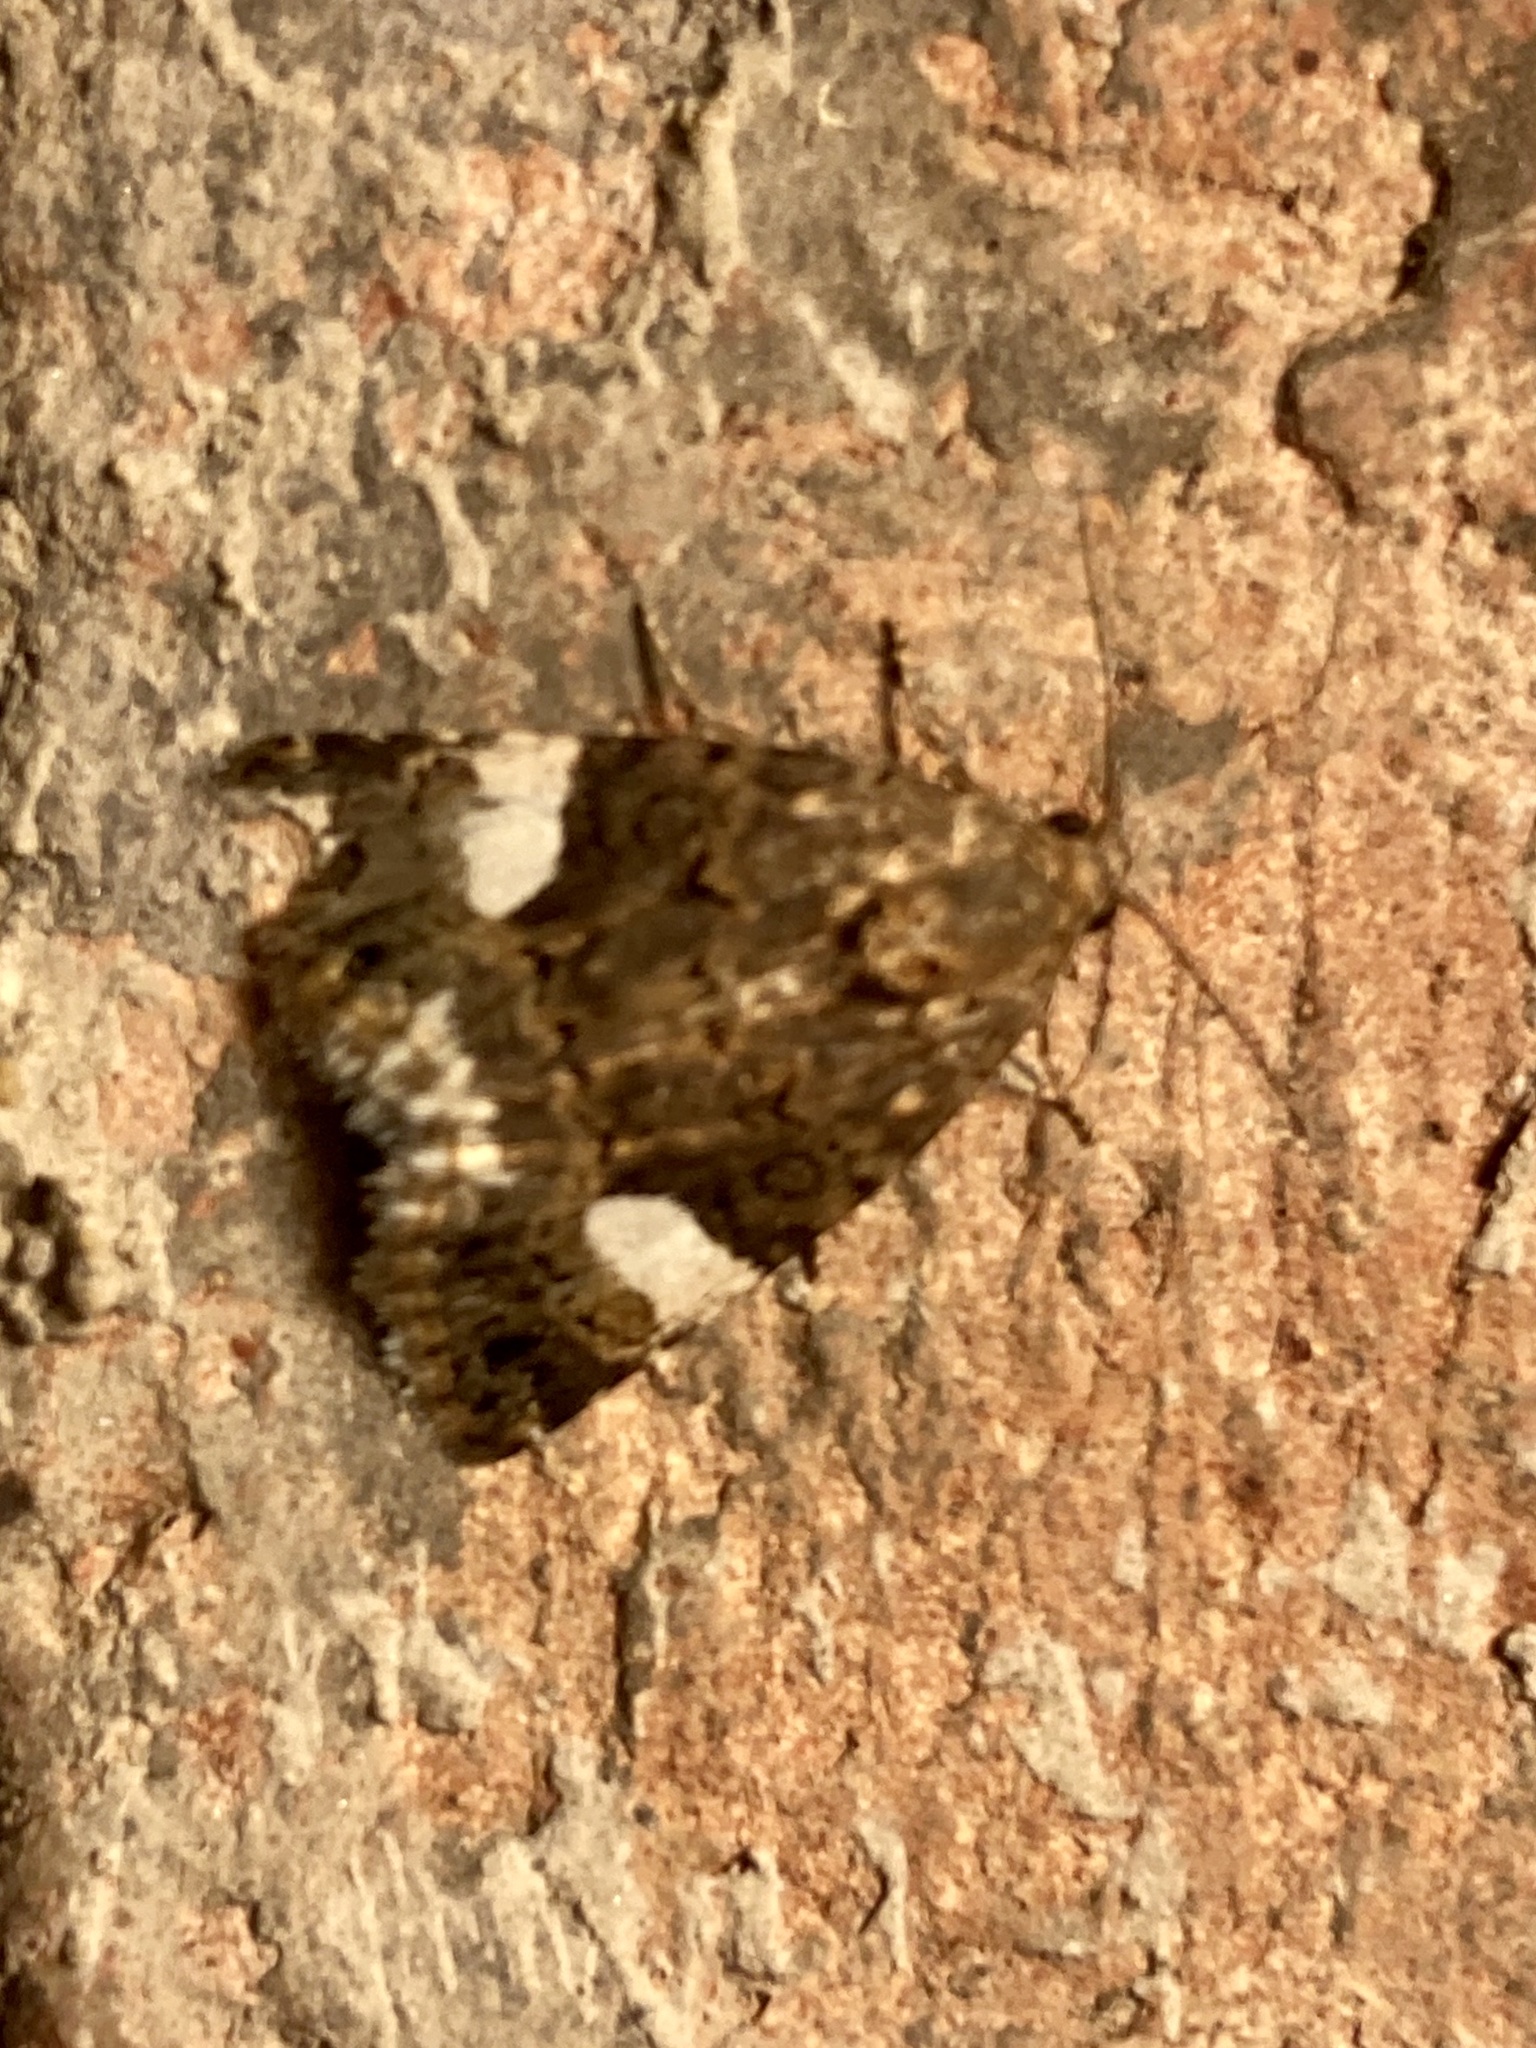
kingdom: Animalia
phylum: Arthropoda
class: Insecta
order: Lepidoptera
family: Erebidae
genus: Tyta
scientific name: Tyta luctuosa
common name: Four-spotted
